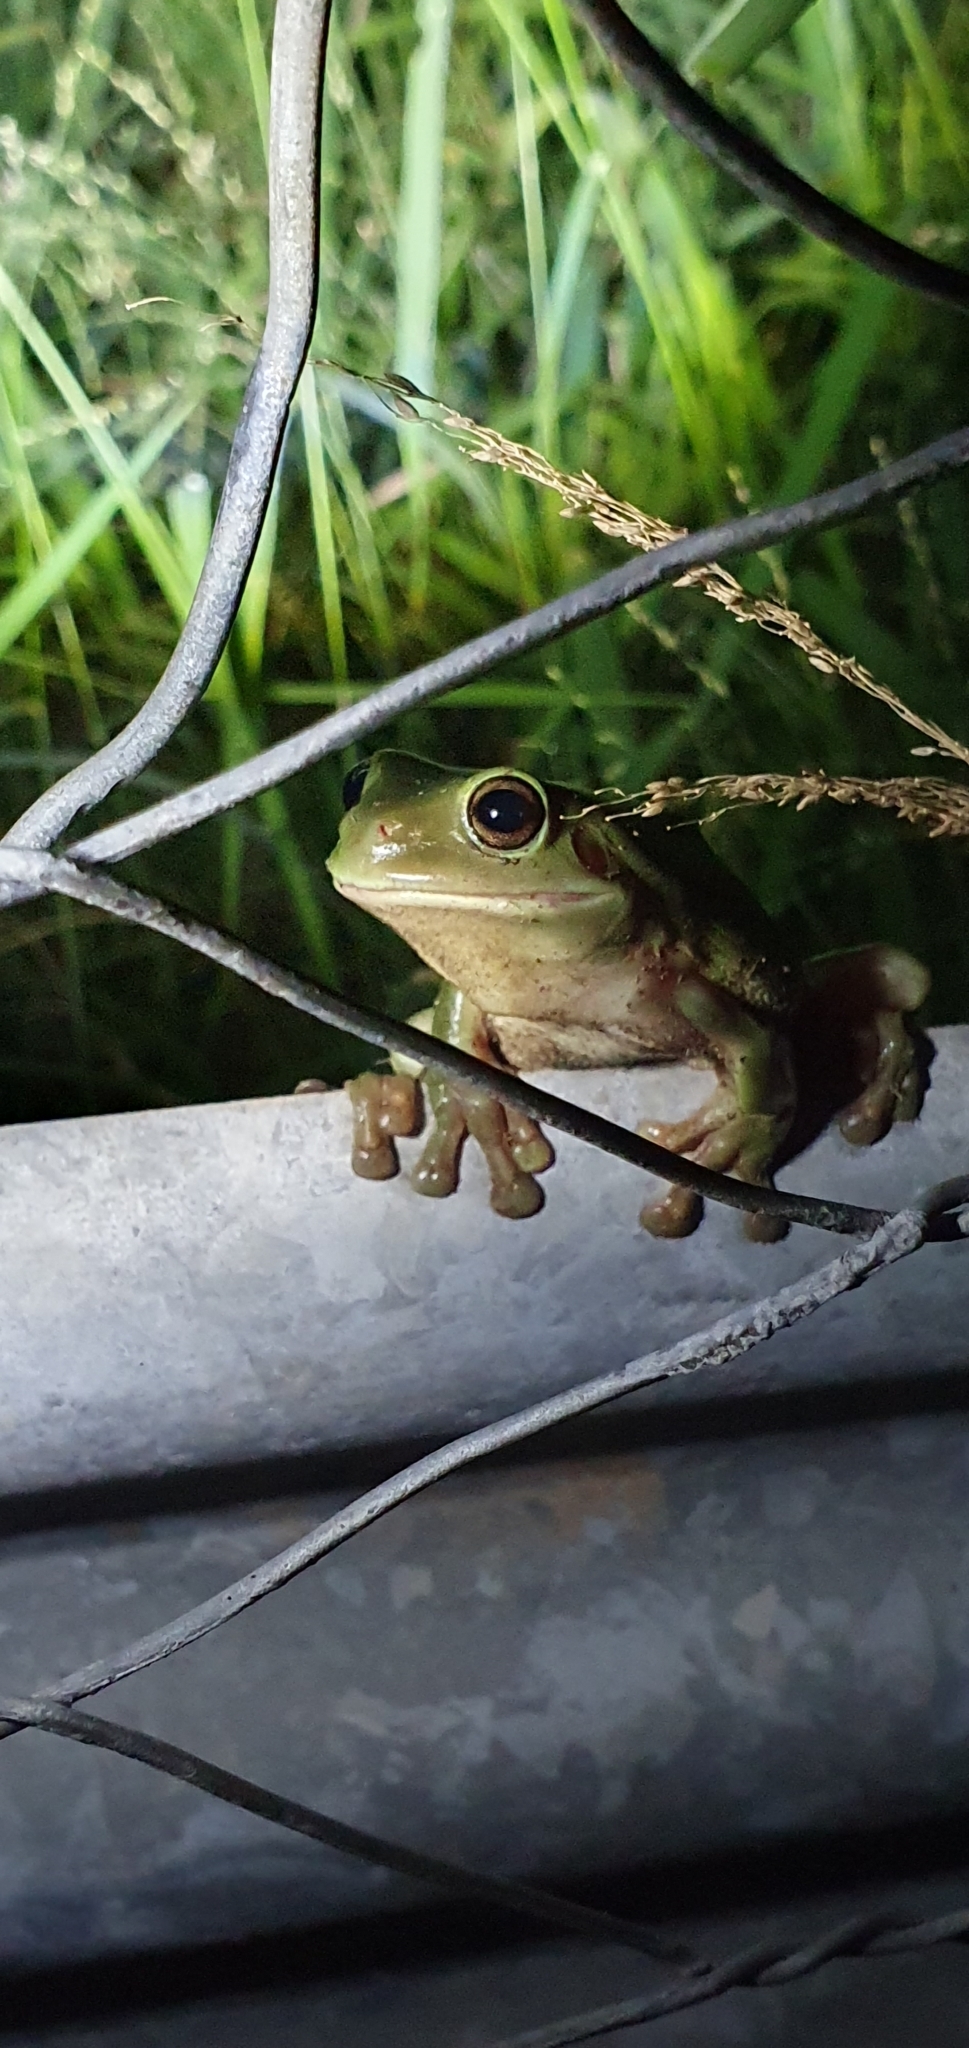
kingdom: Animalia
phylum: Chordata
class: Amphibia
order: Anura
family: Pelodryadidae
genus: Ranoidea
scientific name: Ranoidea caerulea
